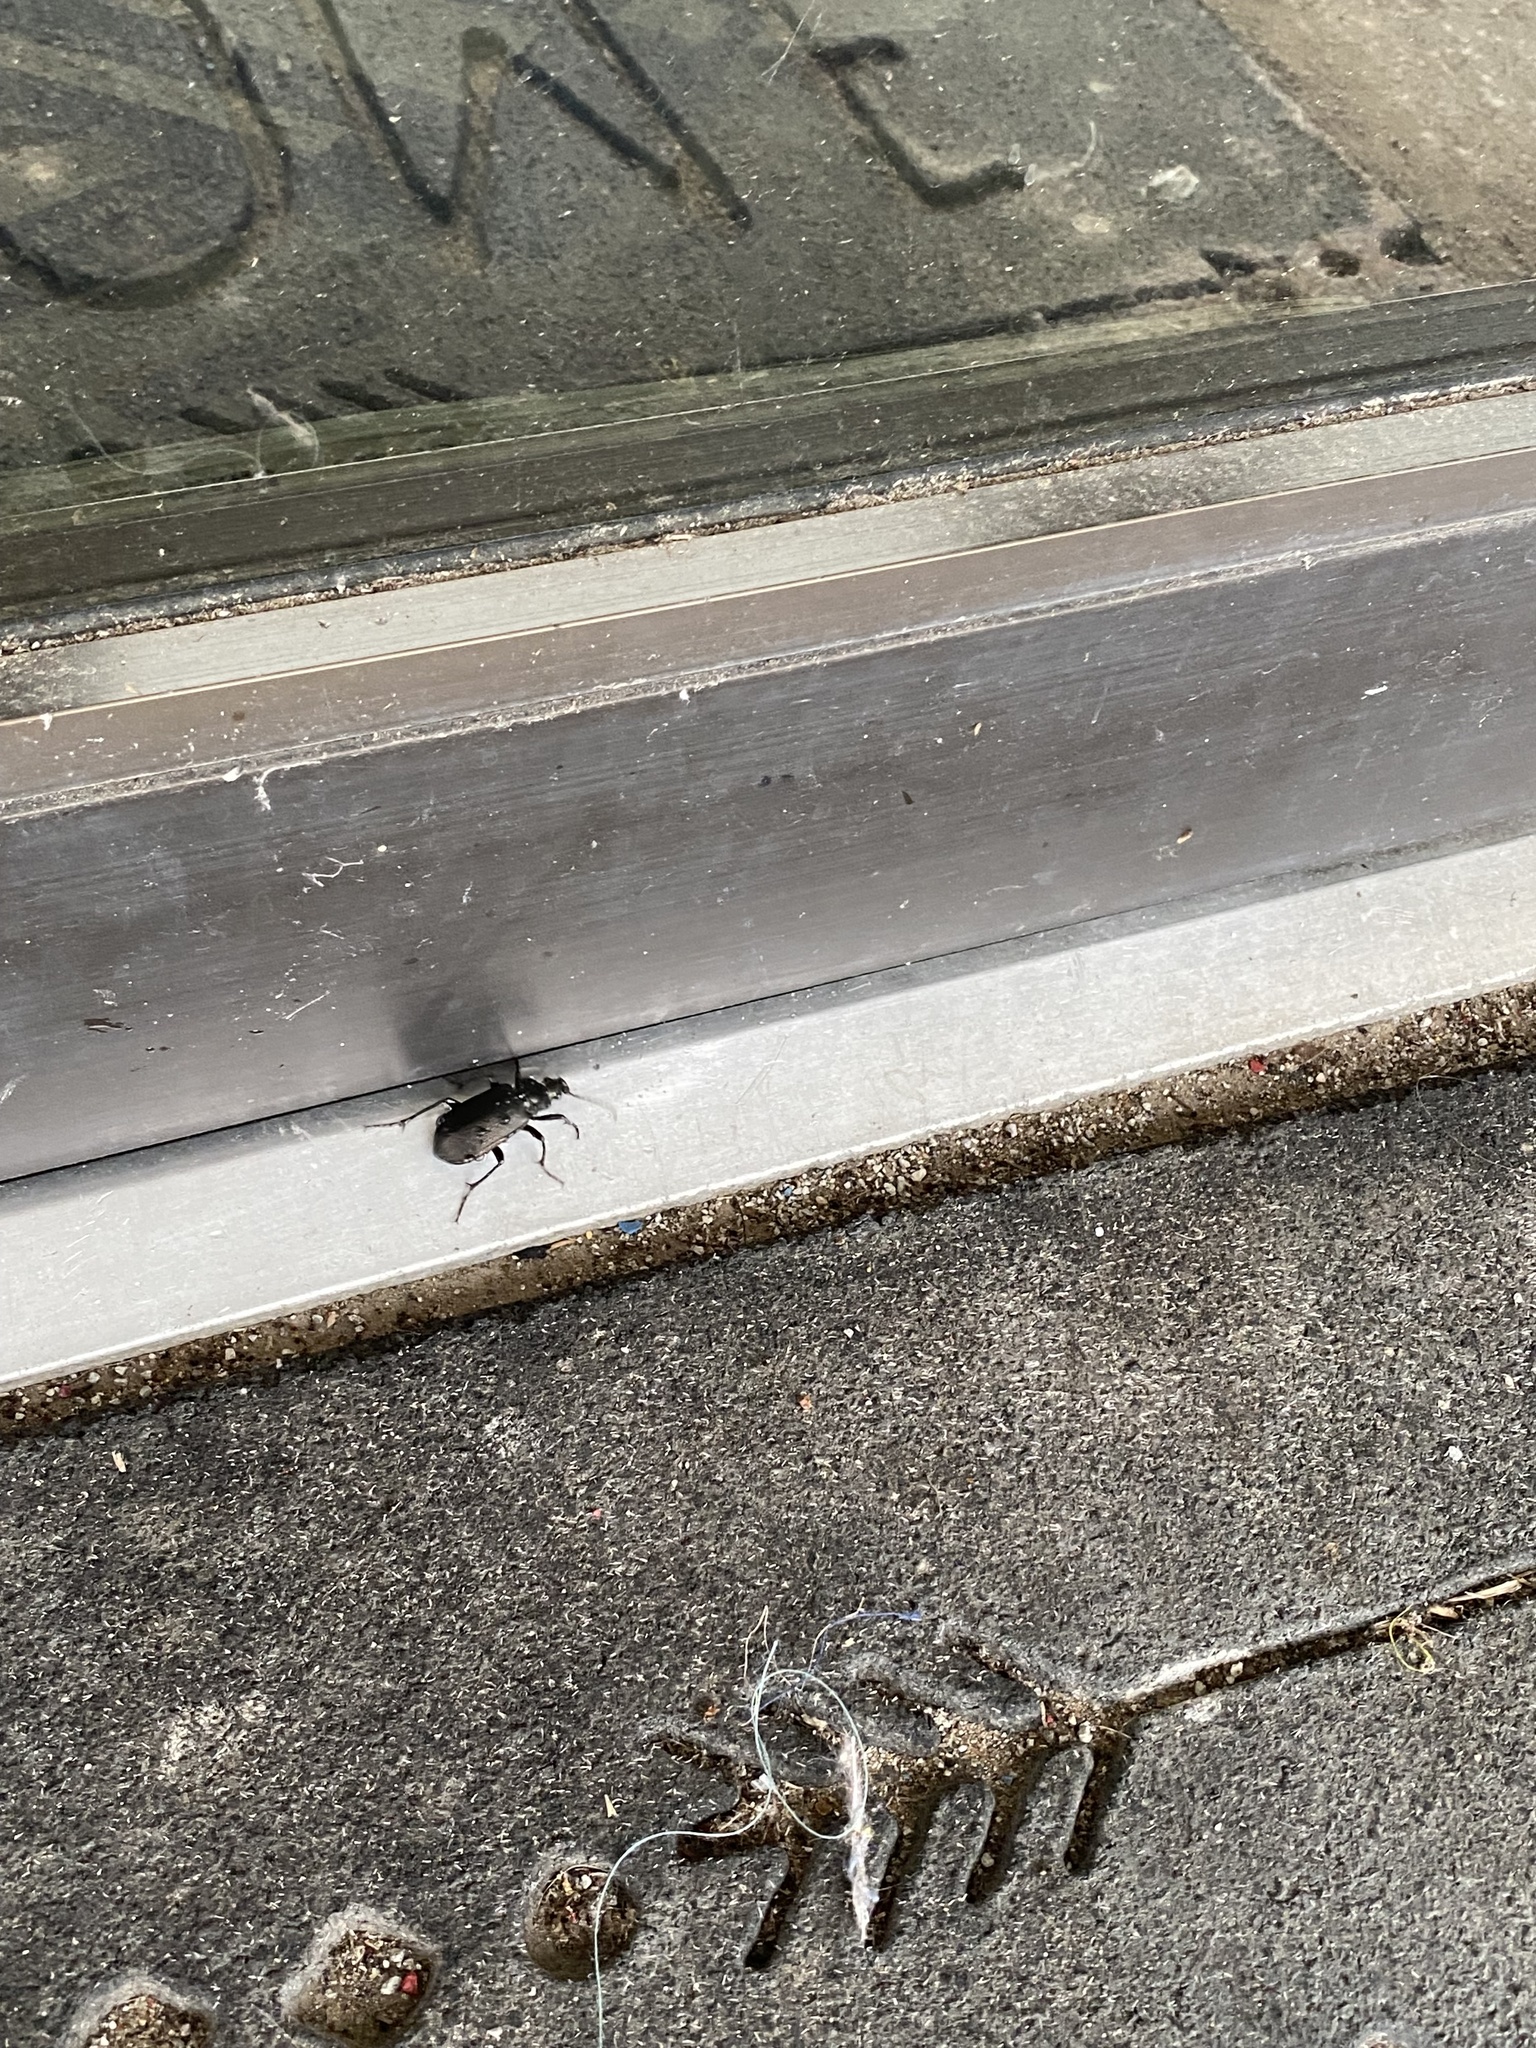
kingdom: Animalia
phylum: Arthropoda
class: Insecta
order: Coleoptera
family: Carabidae
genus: Calosoma
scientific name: Calosoma sayi
